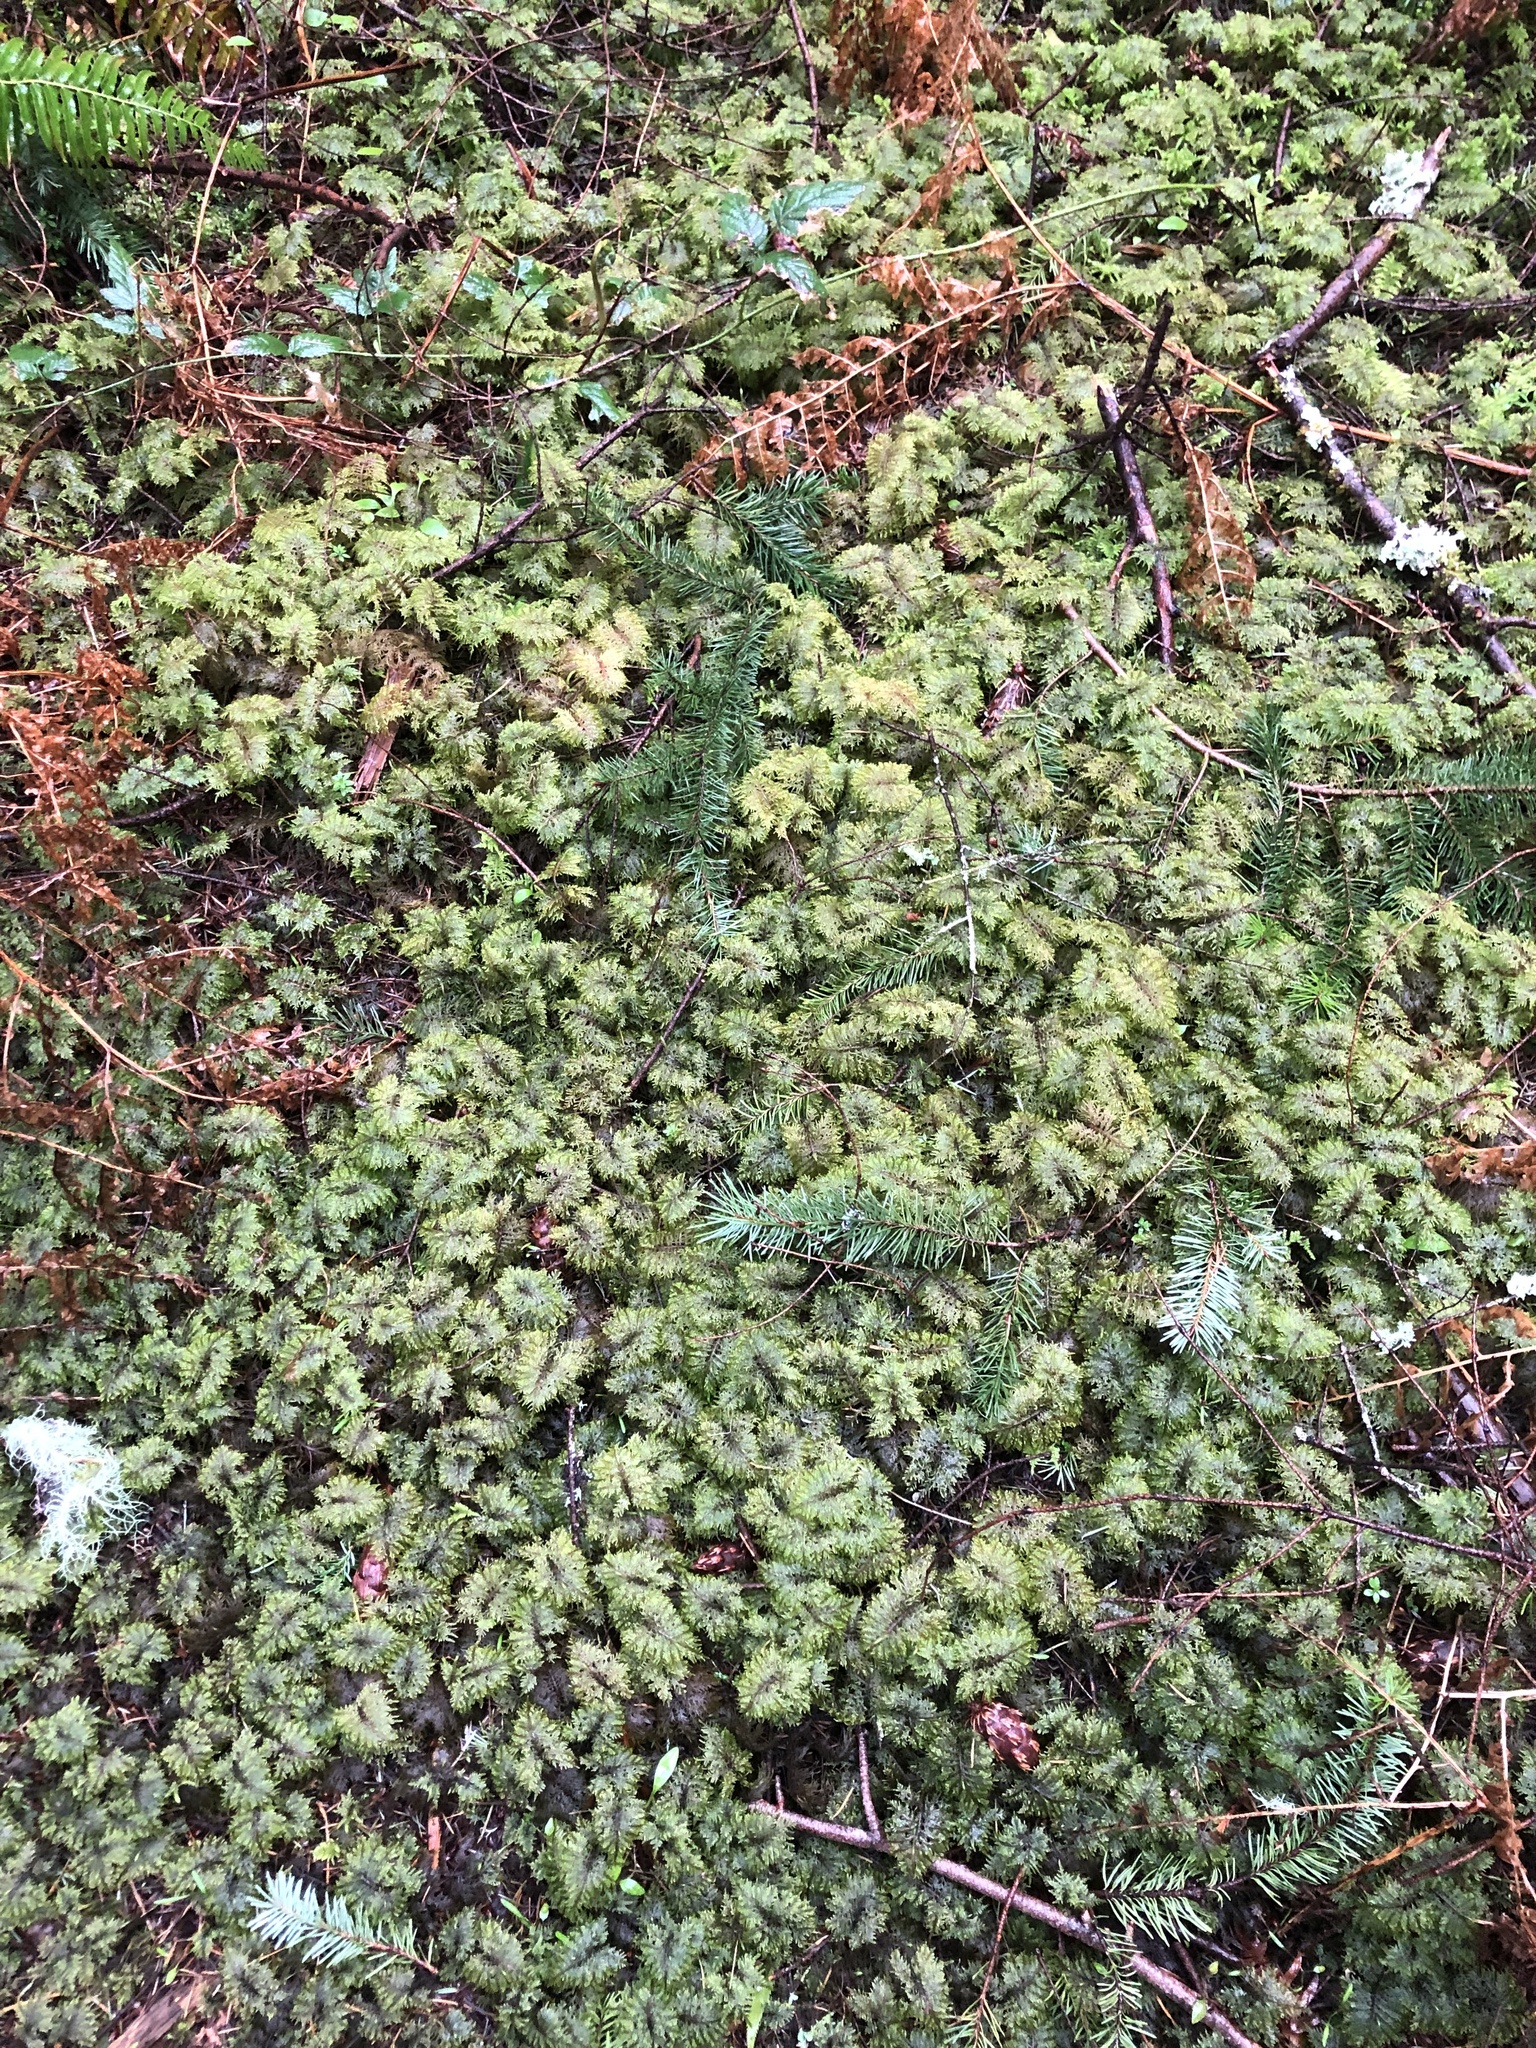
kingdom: Plantae
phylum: Bryophyta
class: Bryopsida
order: Hypnales
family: Hylocomiaceae
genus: Hylocomium
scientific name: Hylocomium splendens
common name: Stairstep moss
